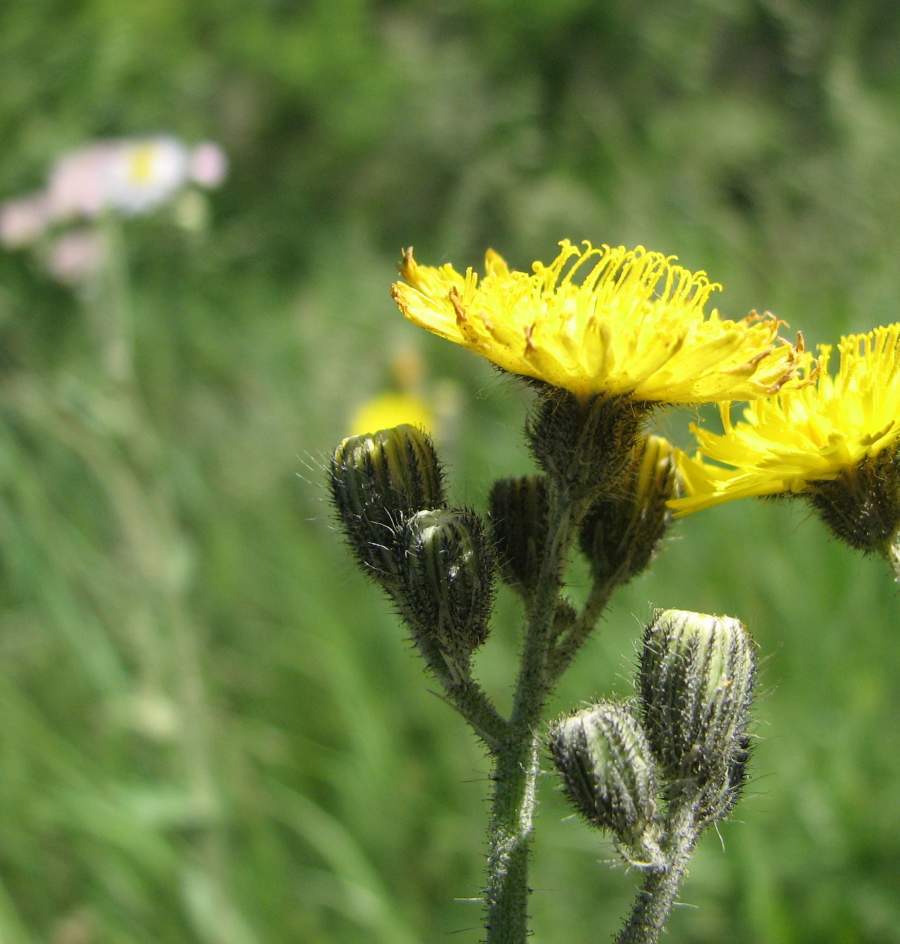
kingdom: Plantae
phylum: Tracheophyta
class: Magnoliopsida
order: Asterales
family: Asteraceae
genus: Pilosella
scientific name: Pilosella caespitosa
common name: Yellow fox-and-cubs
